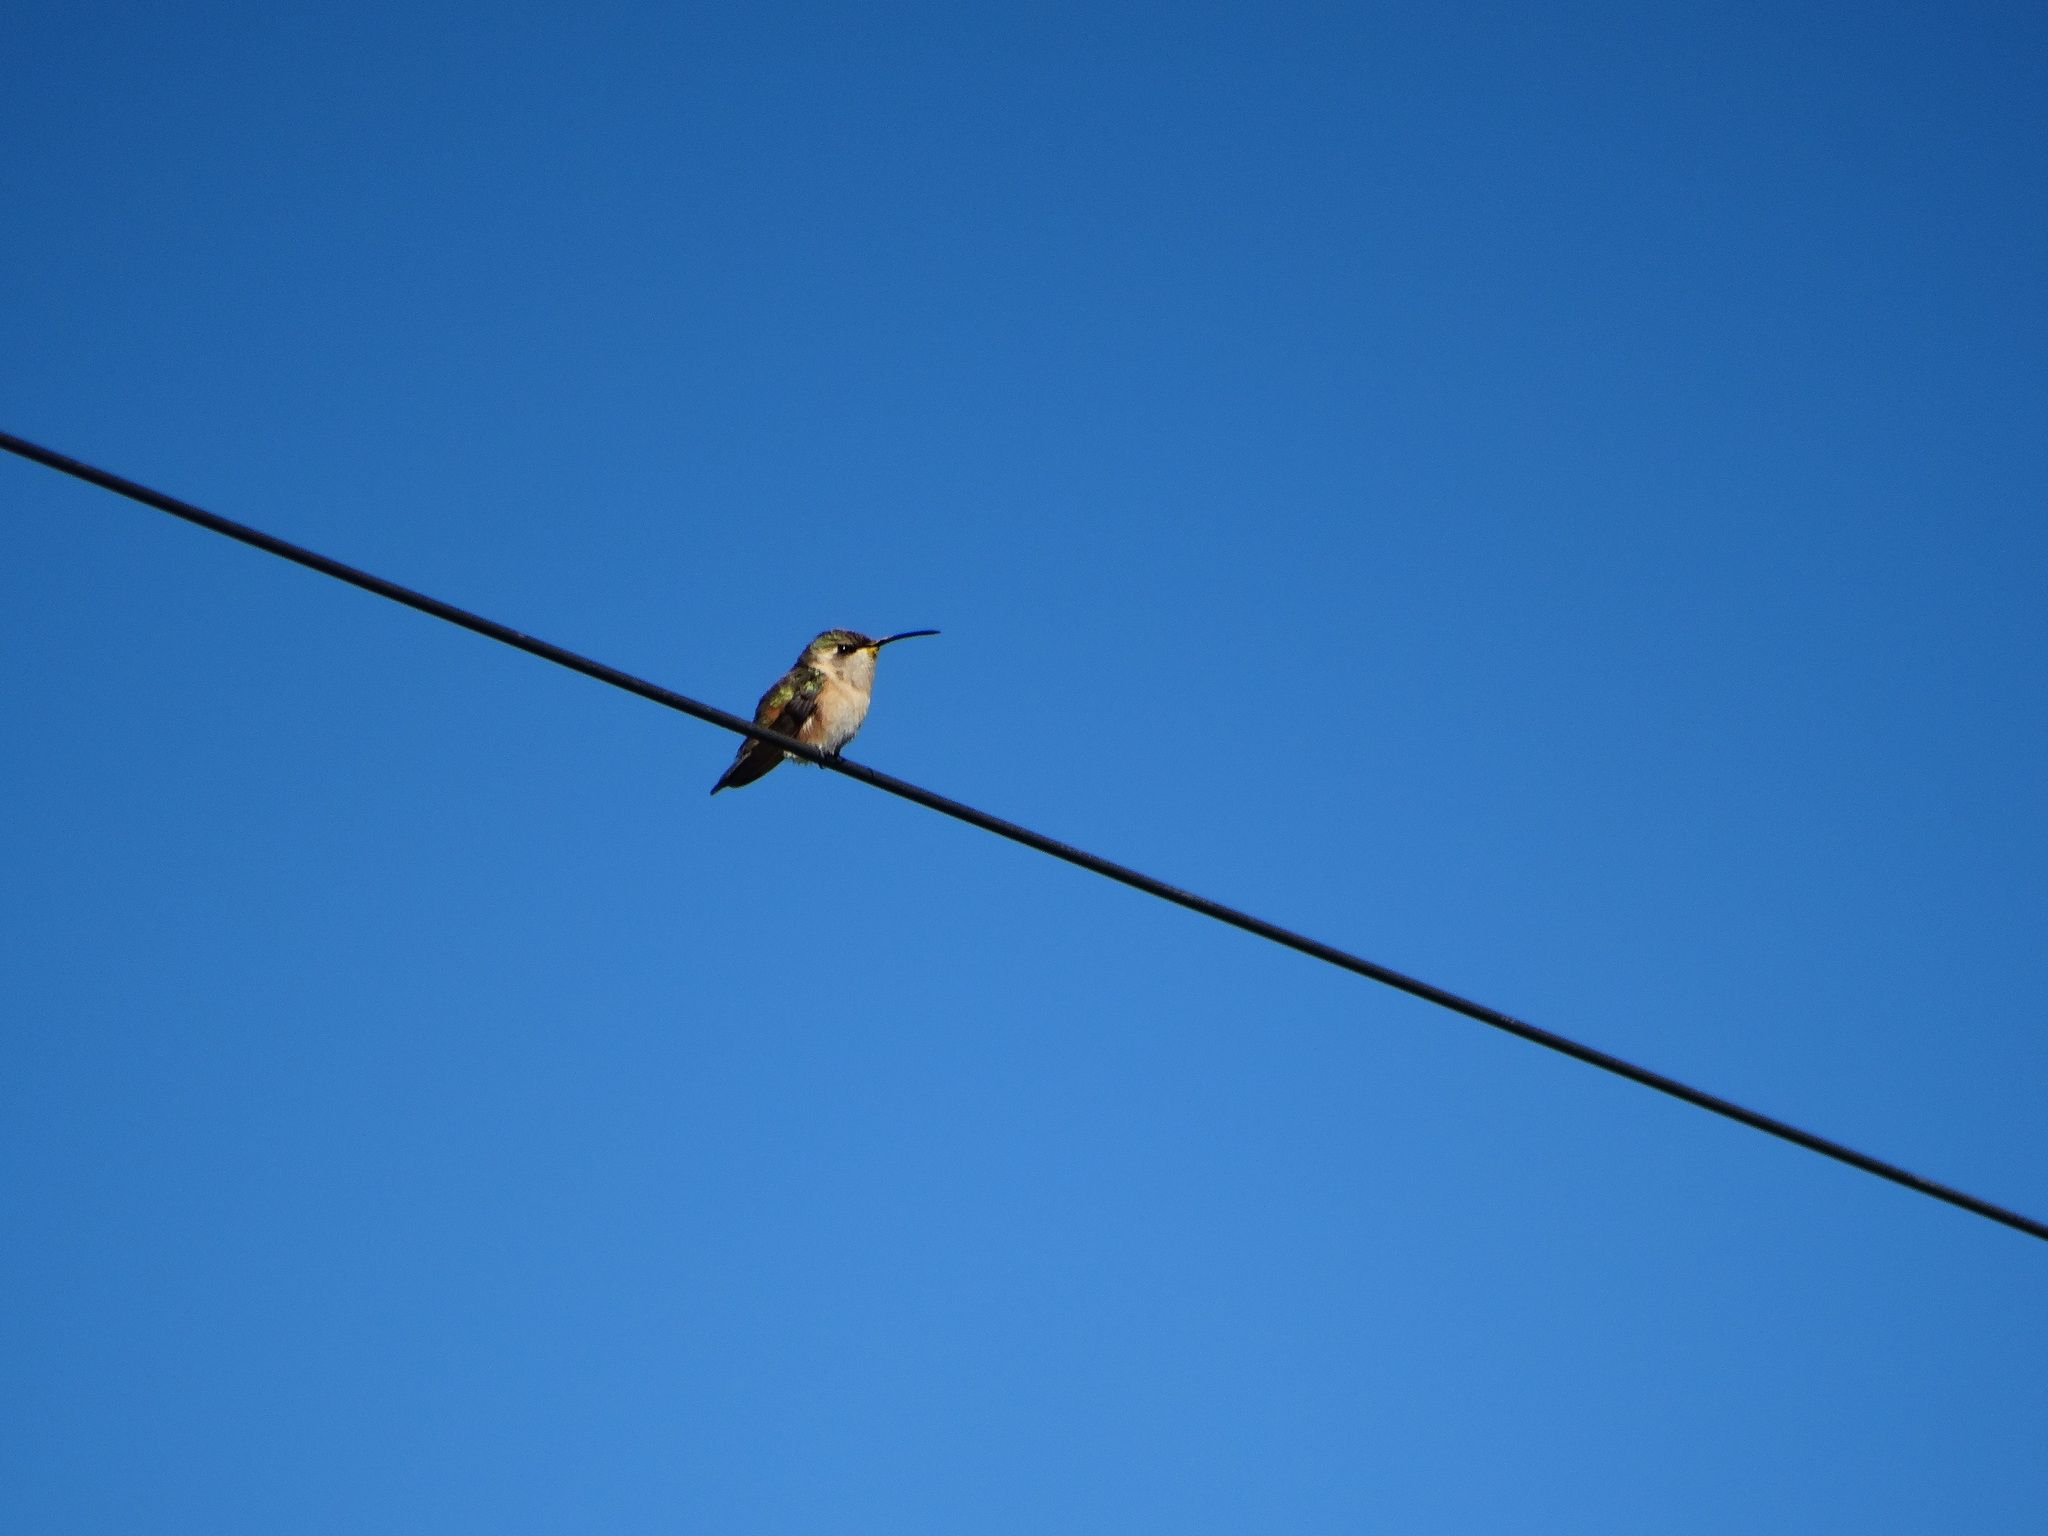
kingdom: Animalia
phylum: Chordata
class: Aves
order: Apodiformes
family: Trochilidae
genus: Calothorax
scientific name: Calothorax lucifer
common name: Lucifer sheartail
